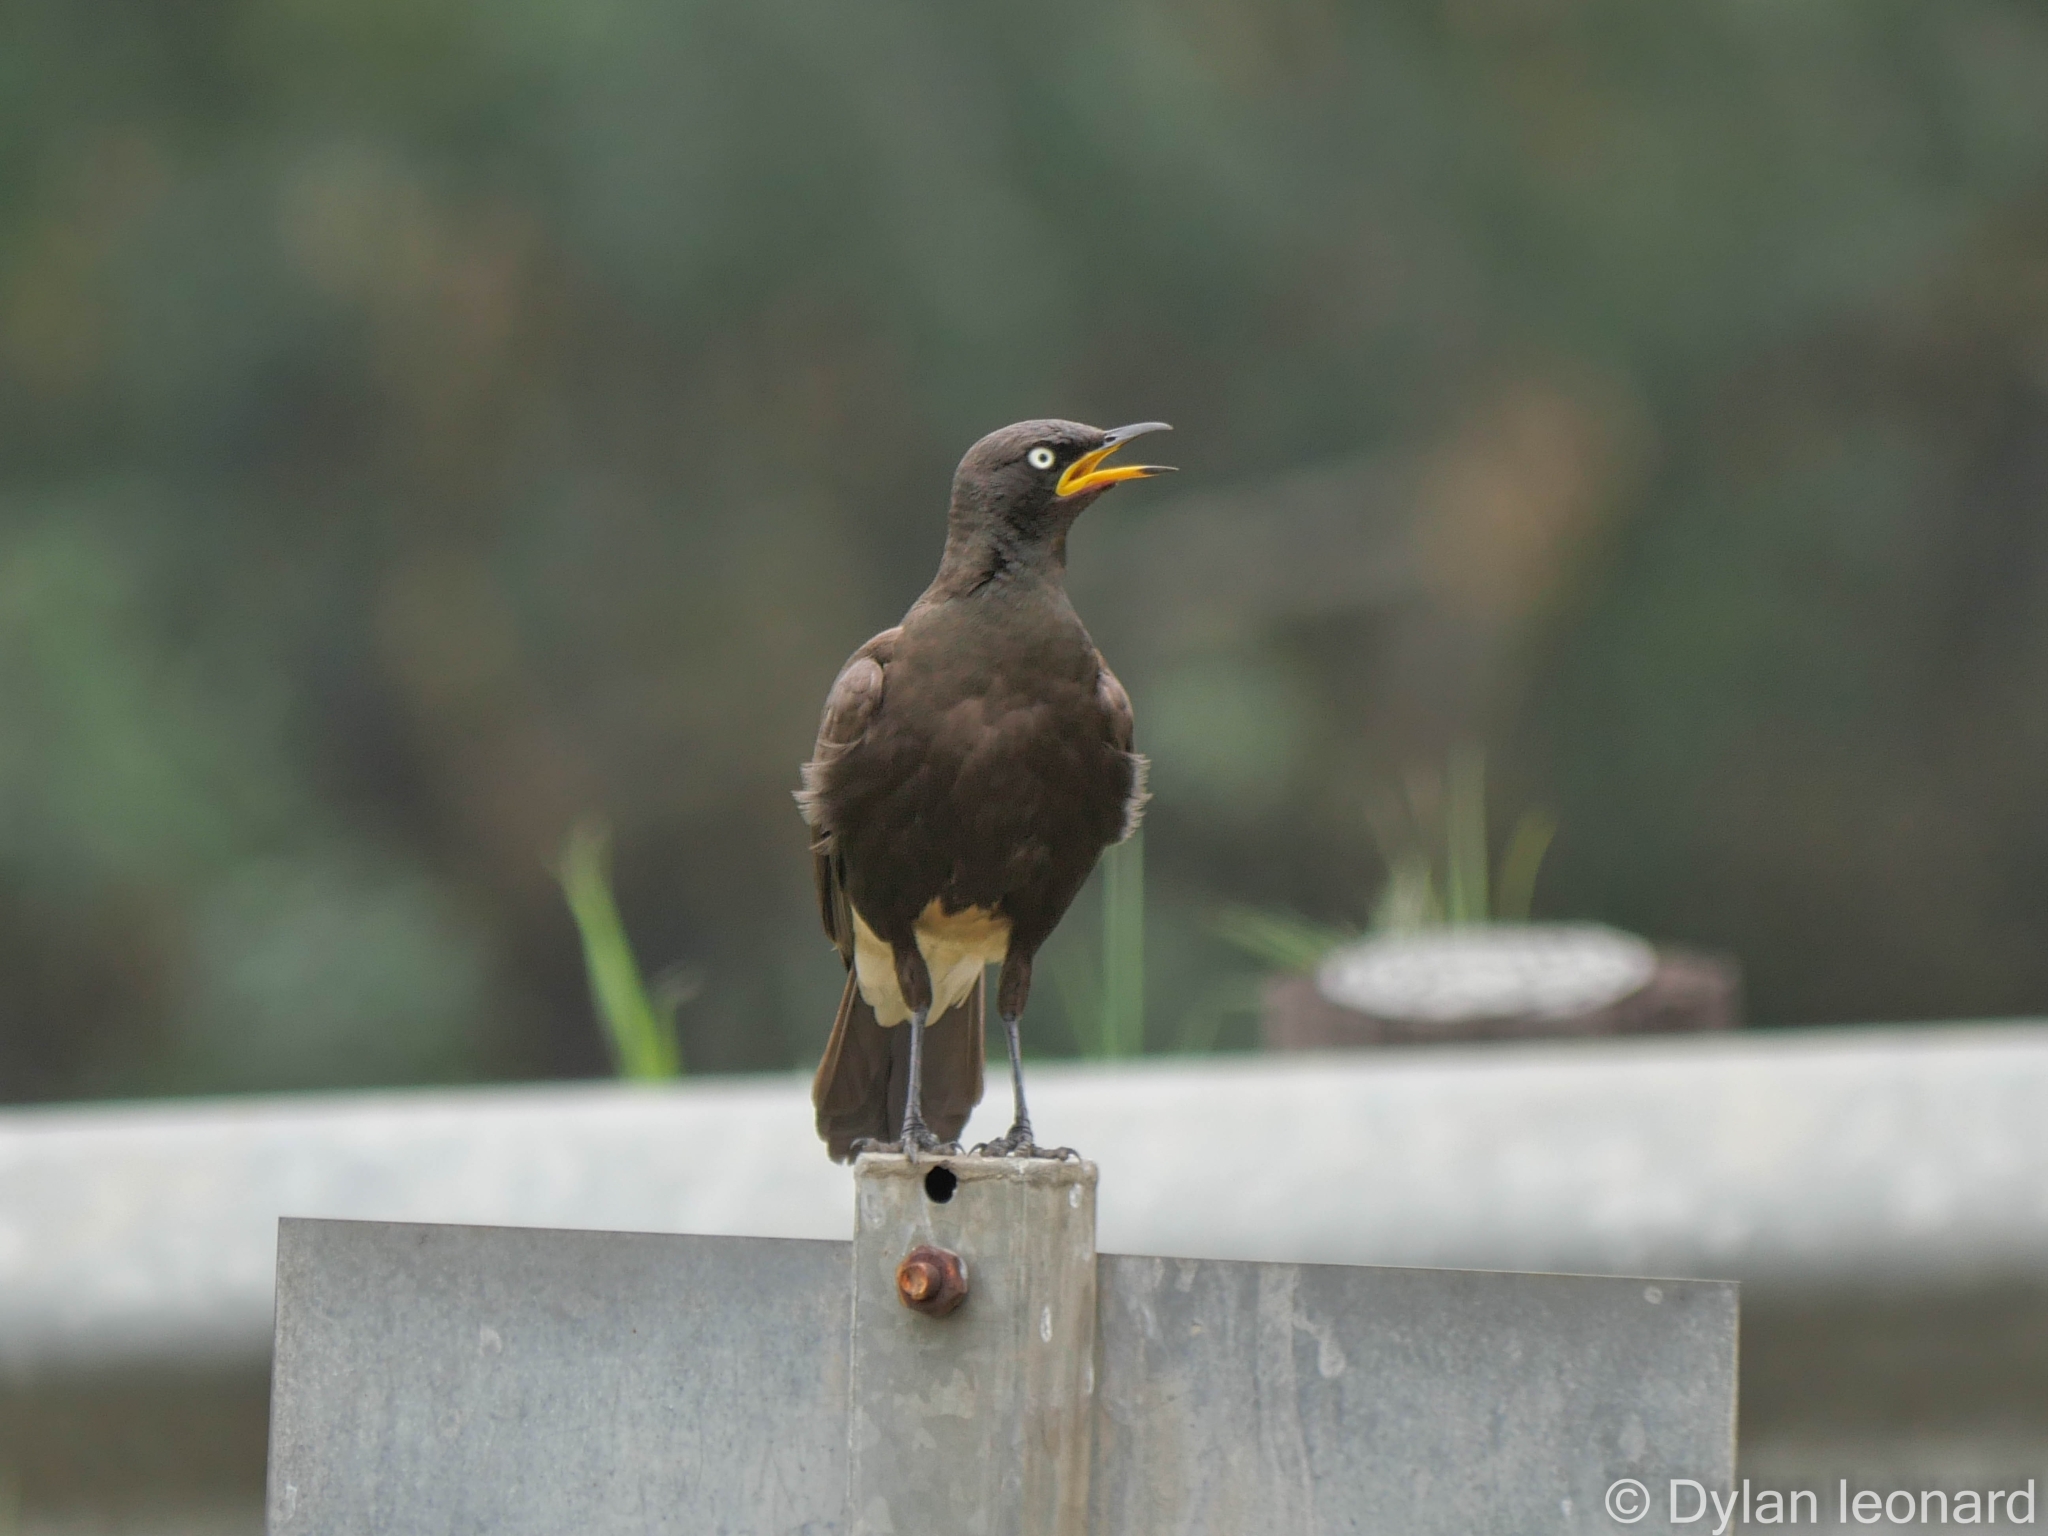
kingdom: Animalia
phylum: Chordata
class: Aves
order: Passeriformes
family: Sturnidae
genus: Lamprotornis
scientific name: Lamprotornis bicolor
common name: Pied starling
